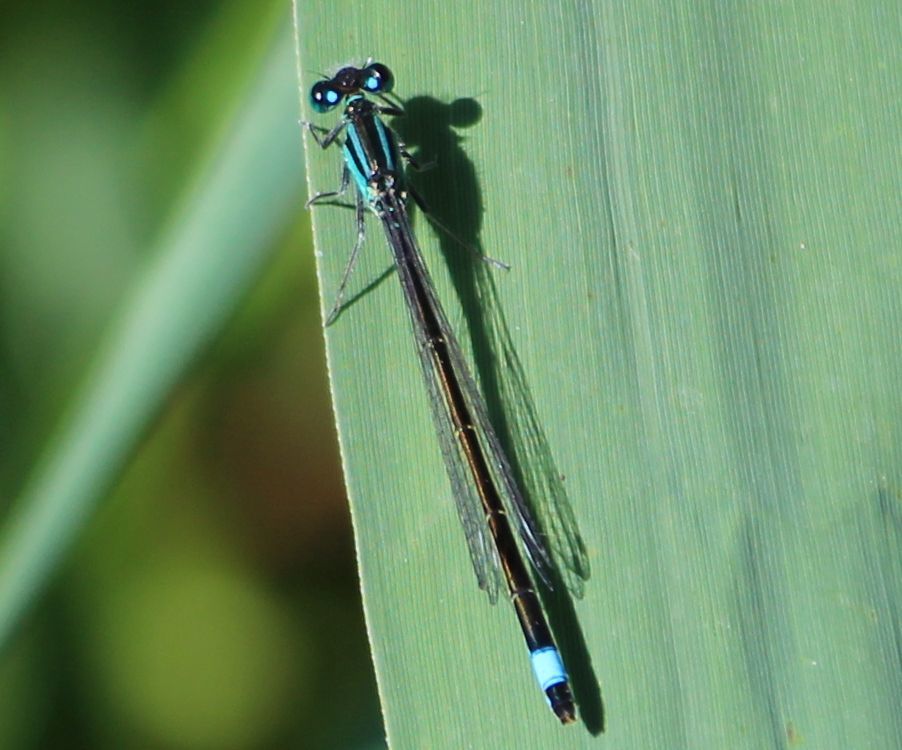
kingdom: Animalia
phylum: Arthropoda
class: Insecta
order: Odonata
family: Coenagrionidae
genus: Ischnura
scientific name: Ischnura elegans
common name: Blue-tailed damselfly
